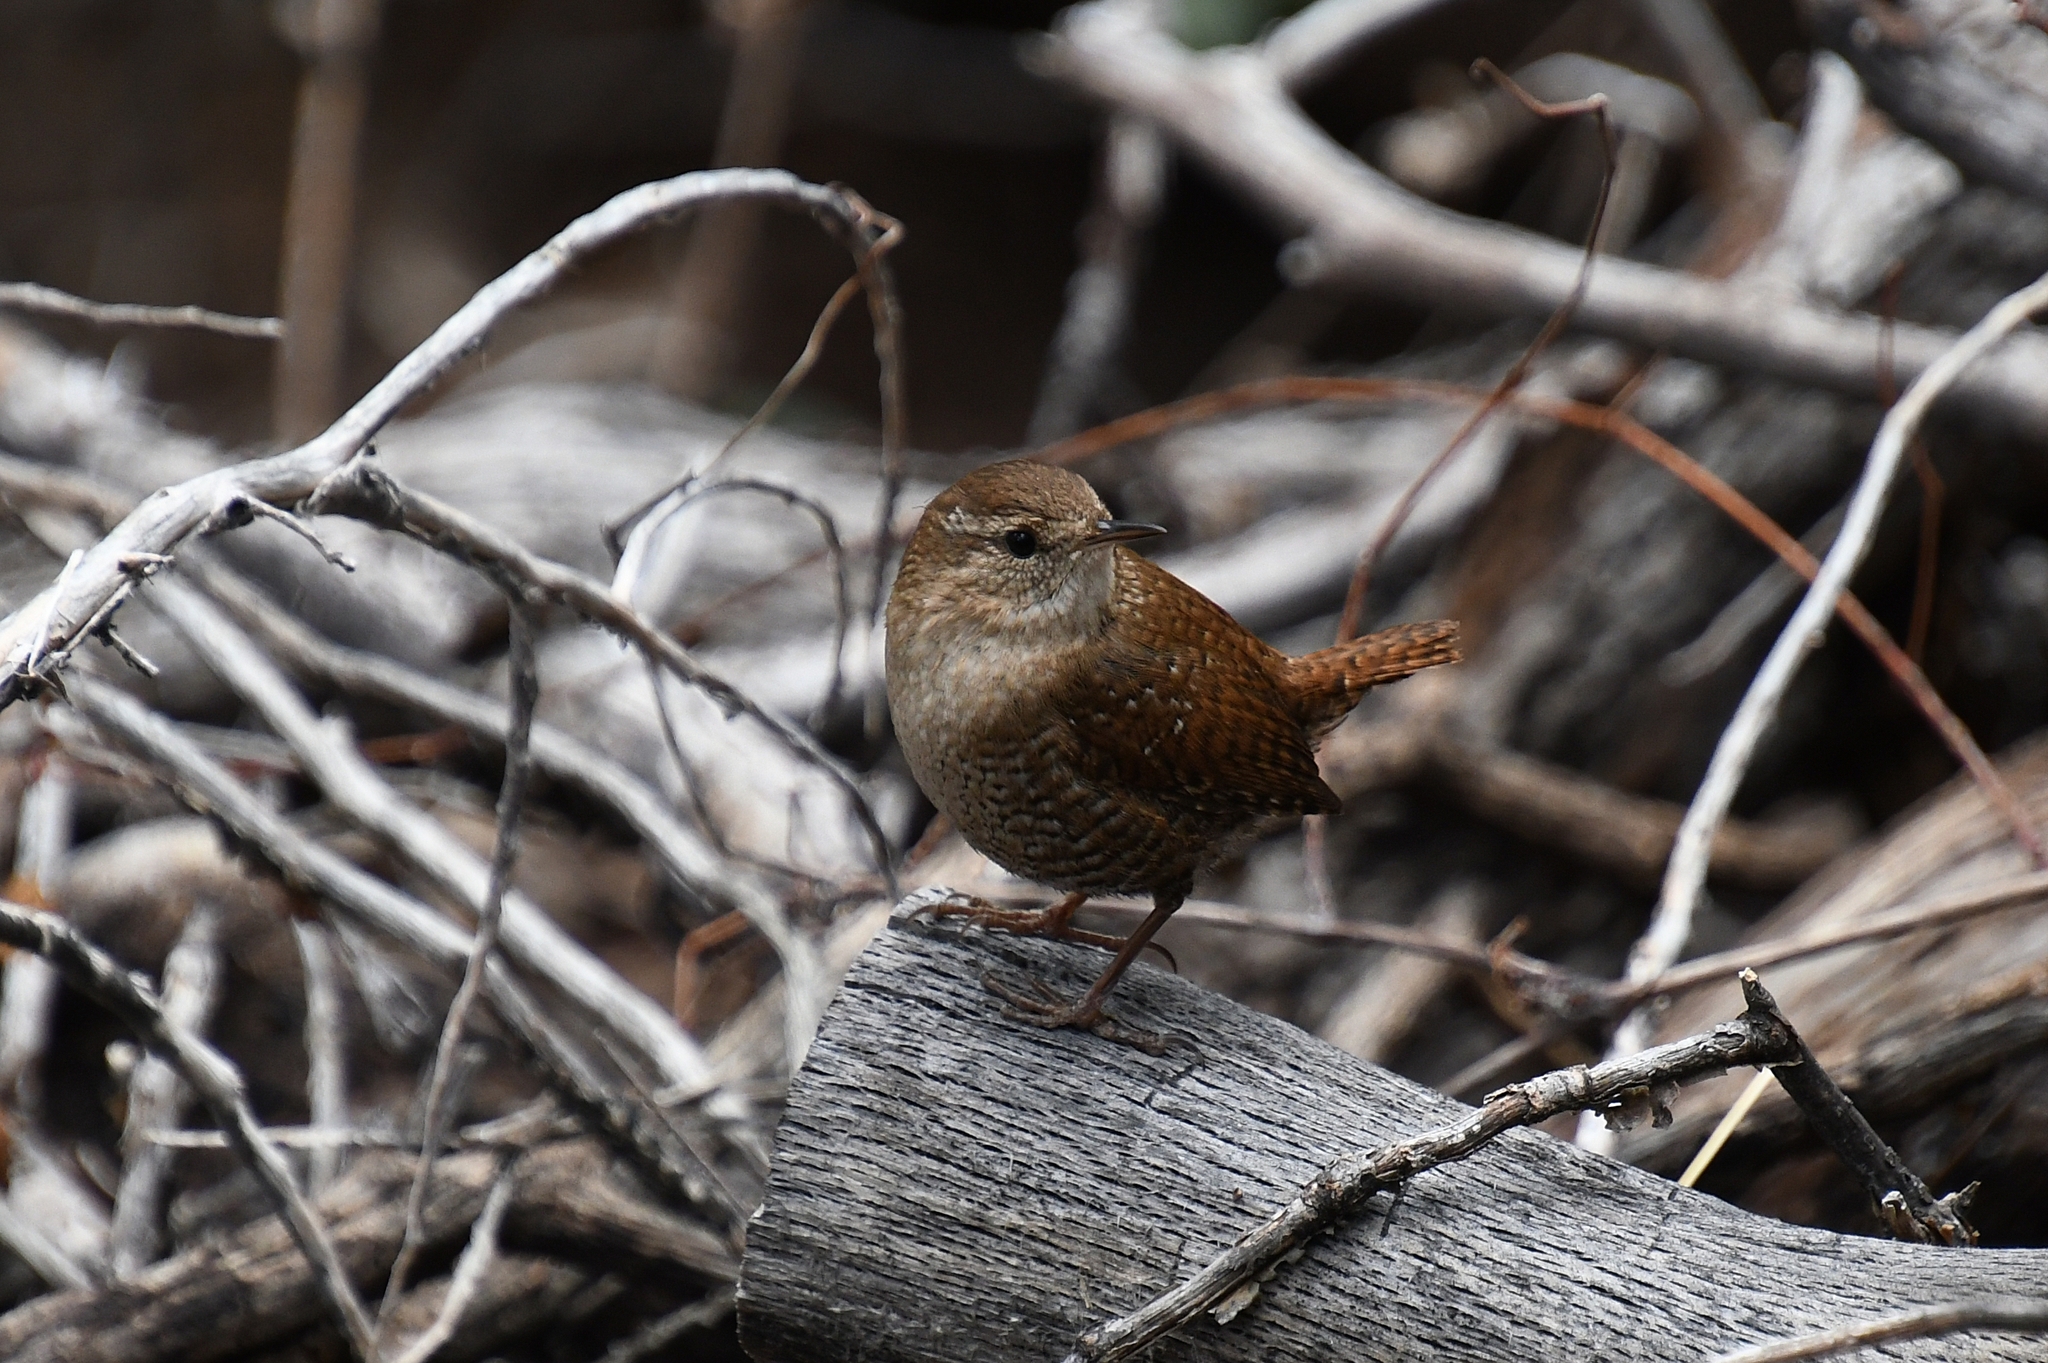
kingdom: Animalia
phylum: Chordata
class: Aves
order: Passeriformes
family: Troglodytidae
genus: Troglodytes
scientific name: Troglodytes hiemalis
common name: Winter wren
